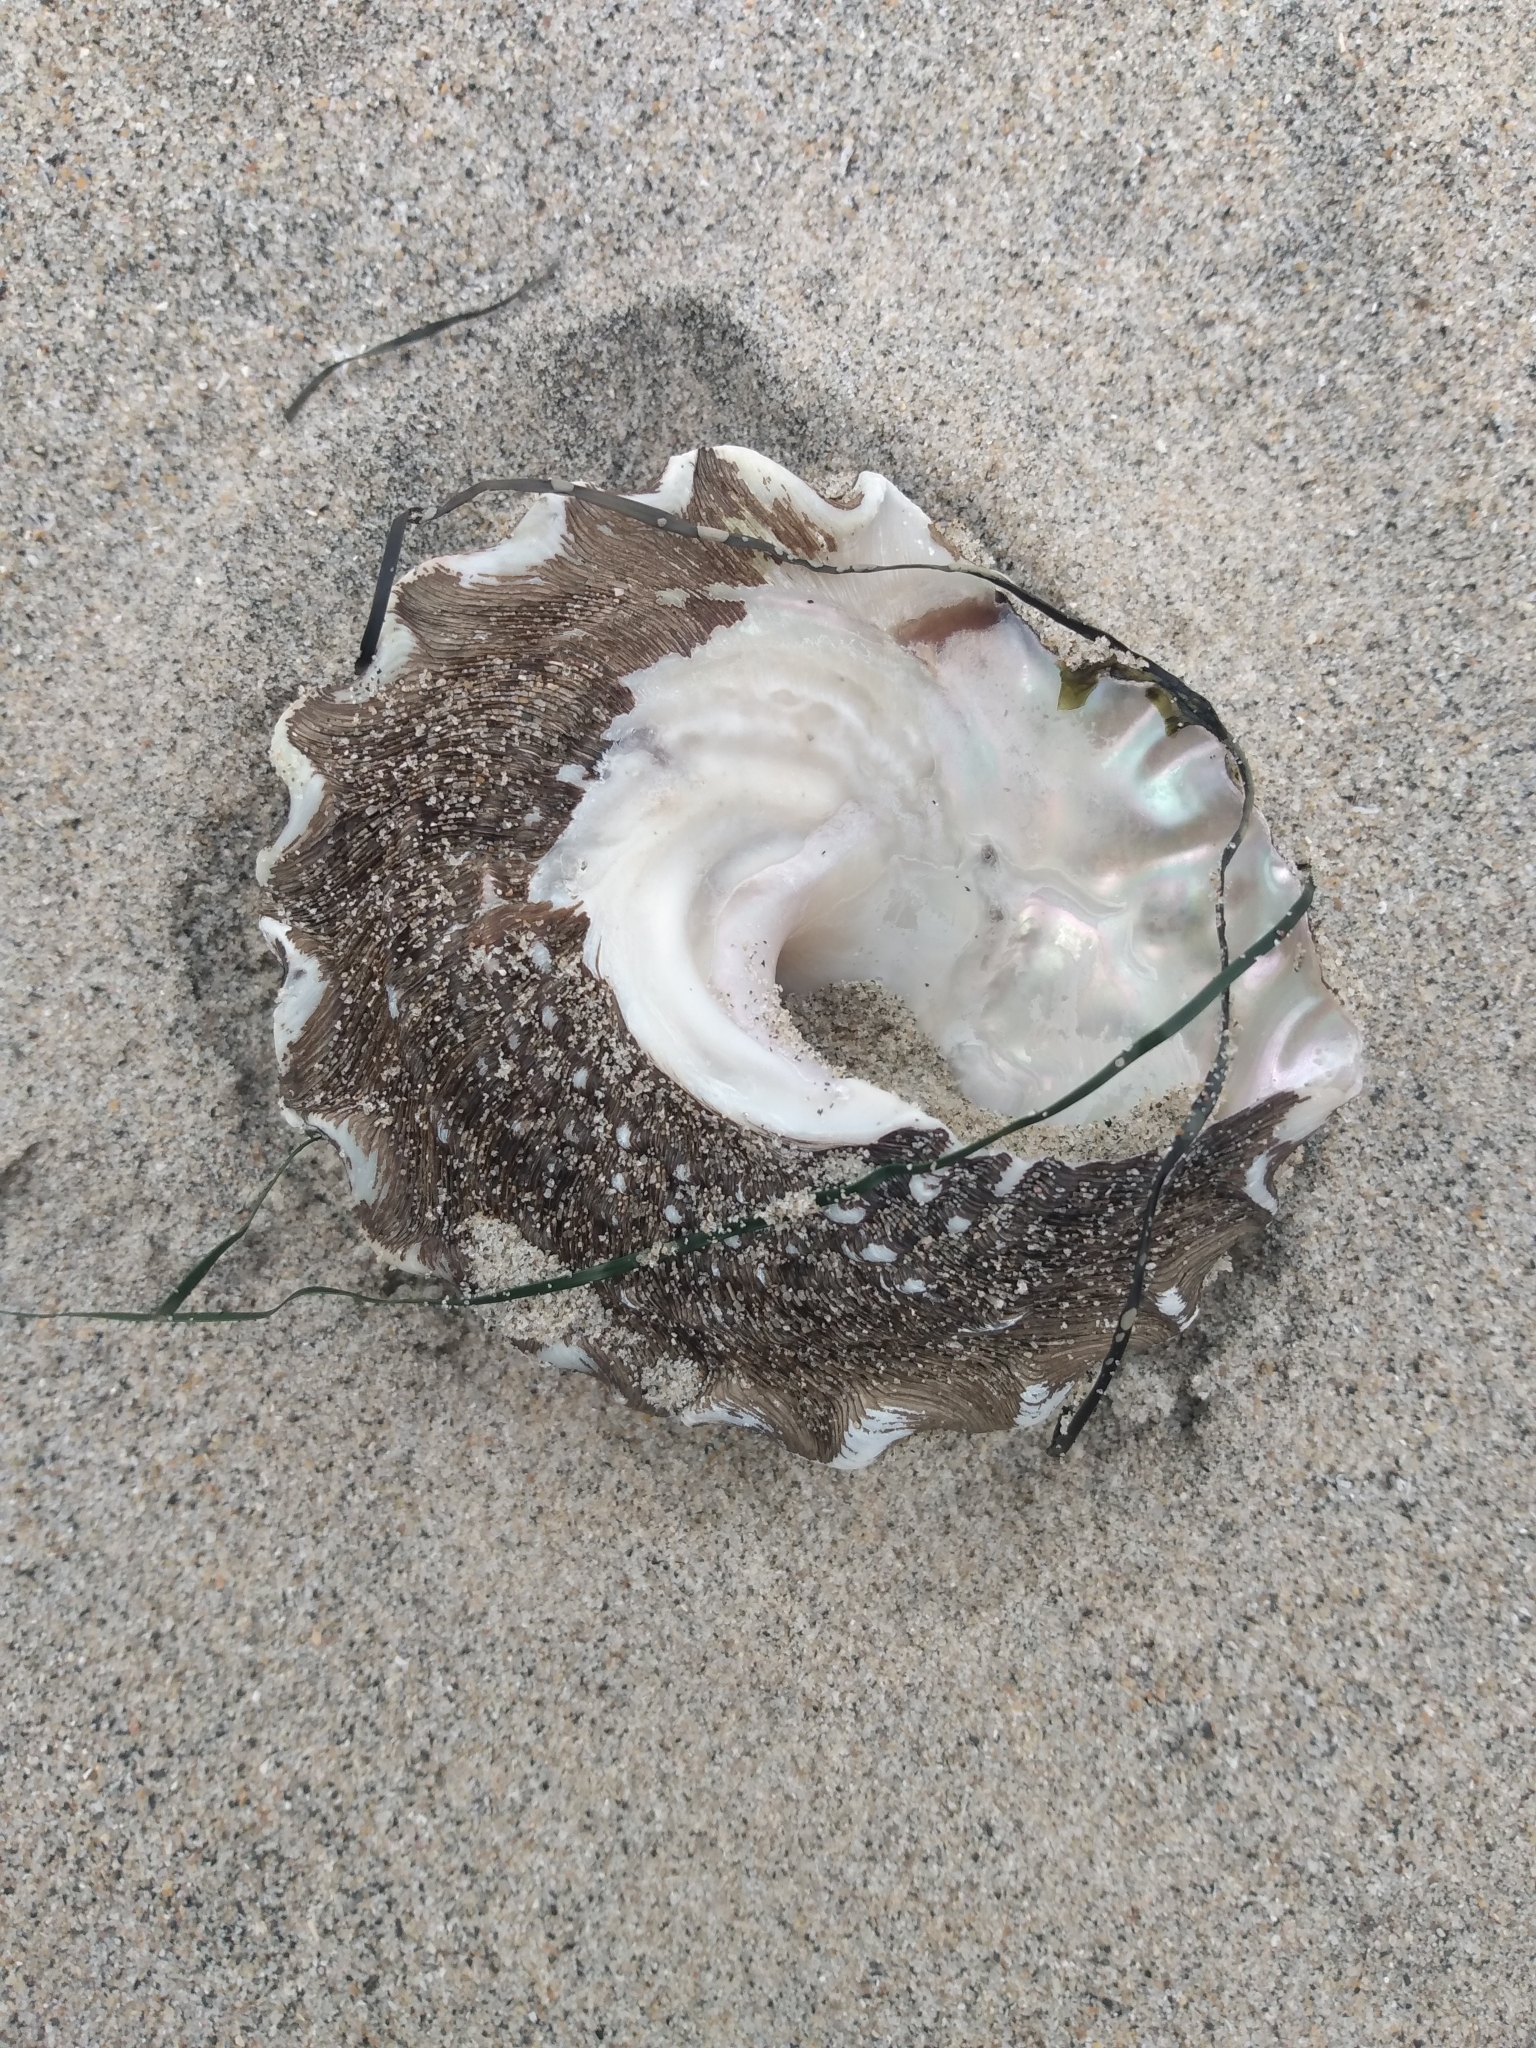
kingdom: Animalia
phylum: Mollusca
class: Gastropoda
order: Trochida
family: Turbinidae
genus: Megastraea
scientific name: Megastraea undosa
